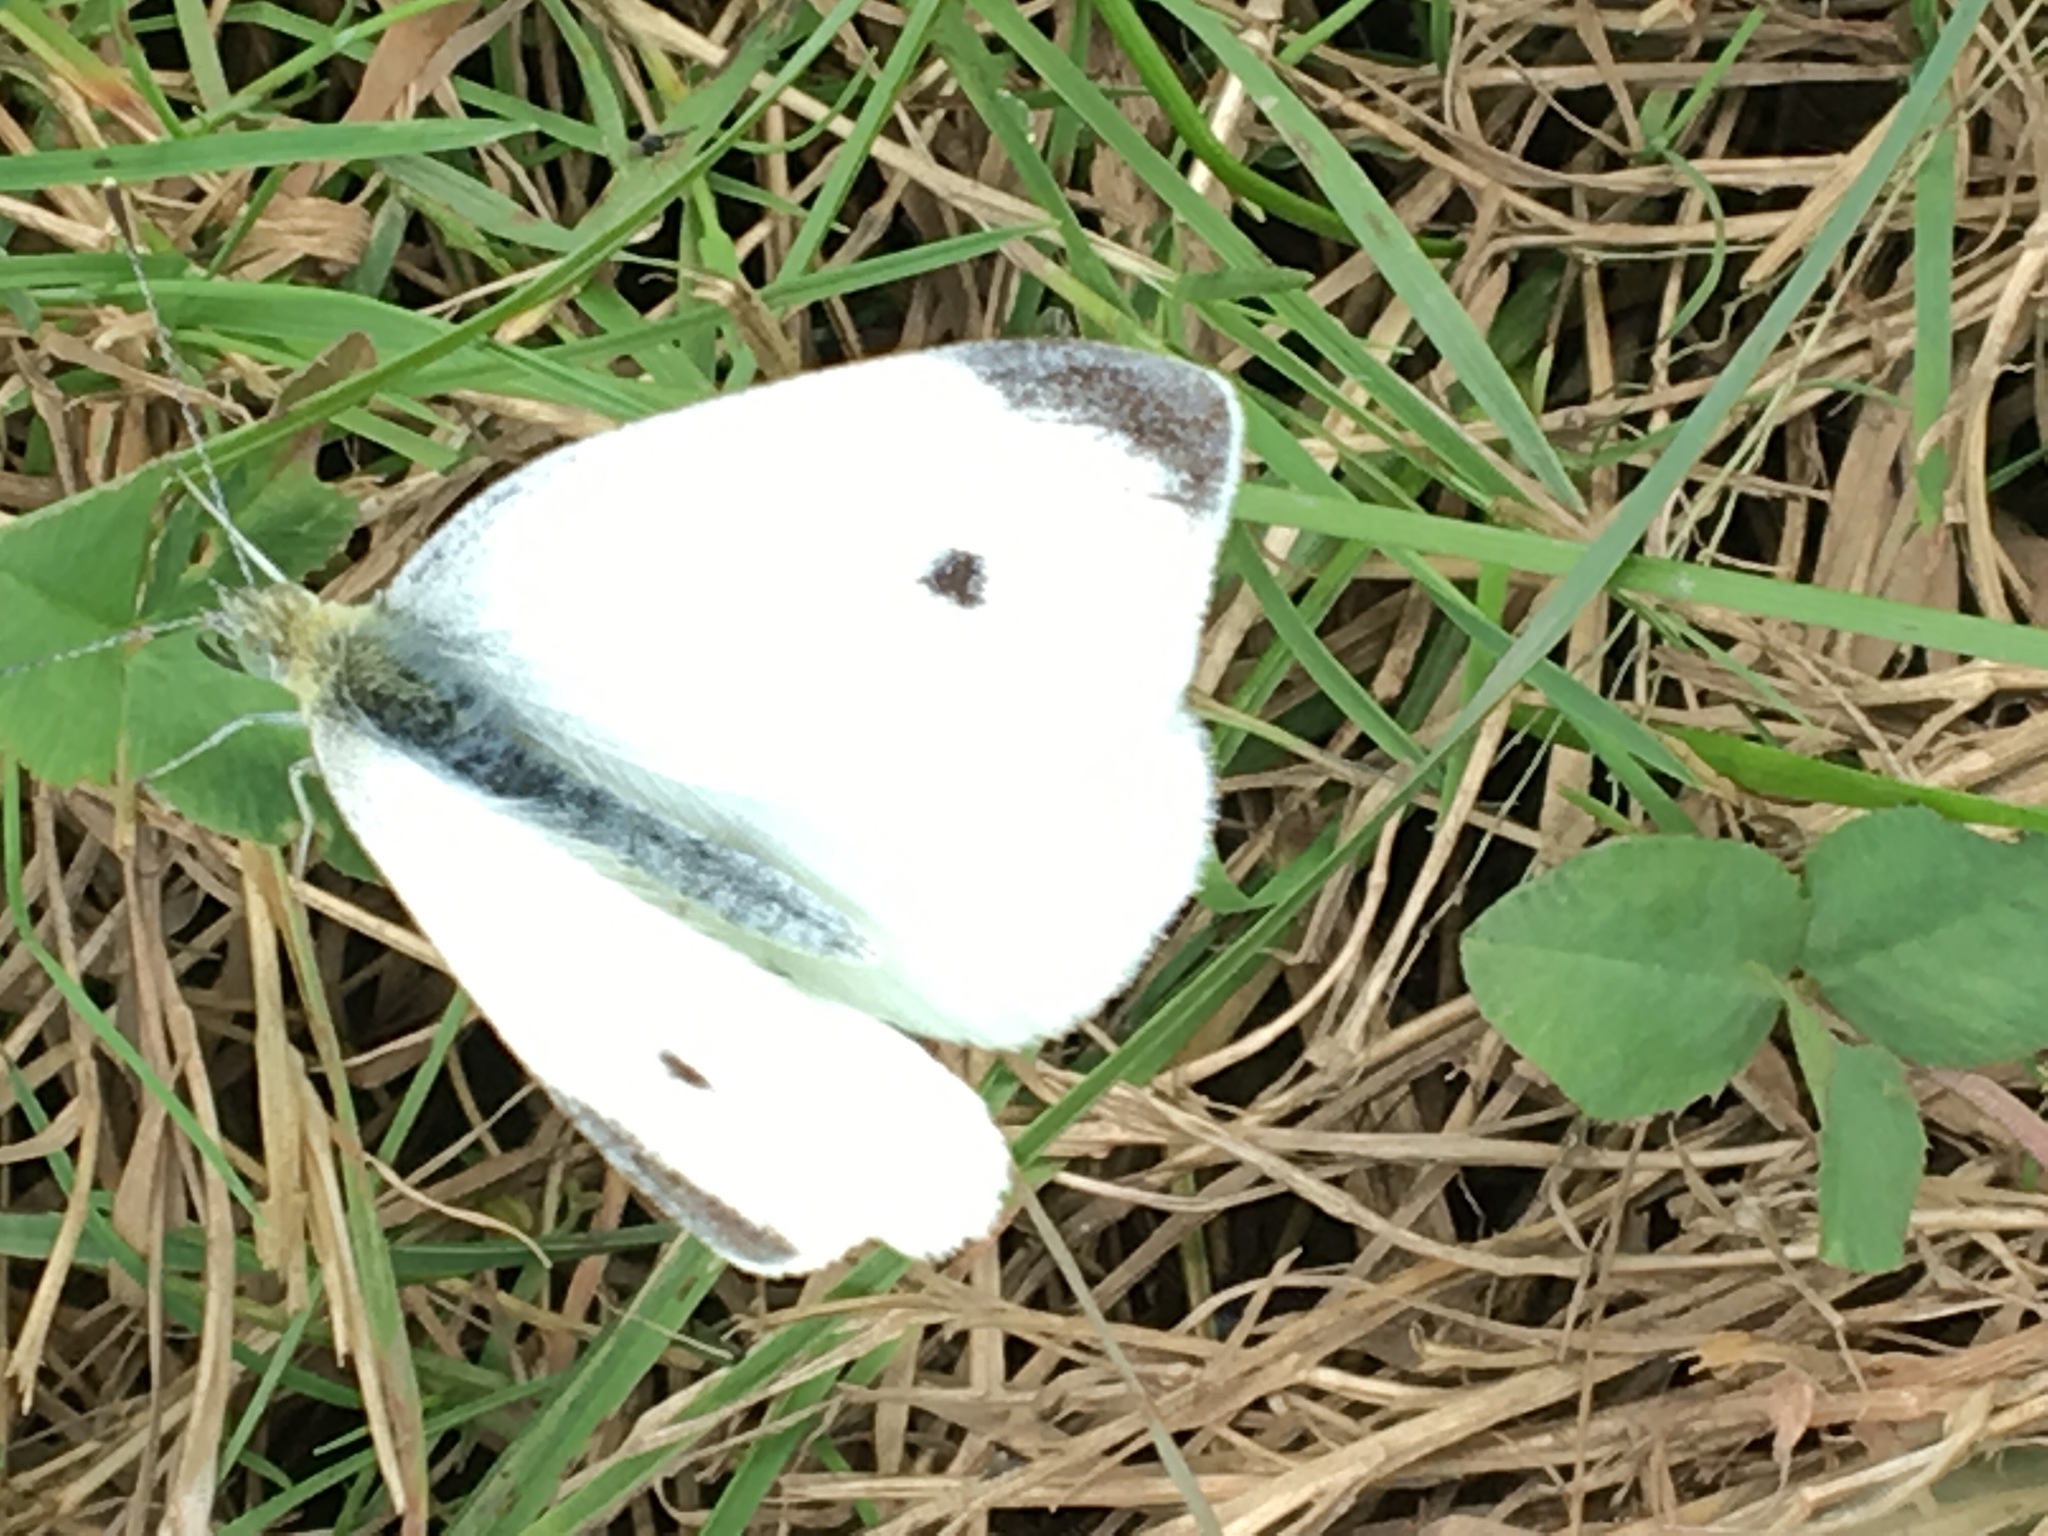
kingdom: Animalia
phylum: Arthropoda
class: Insecta
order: Lepidoptera
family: Pieridae
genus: Pieris
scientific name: Pieris rapae
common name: Small white
